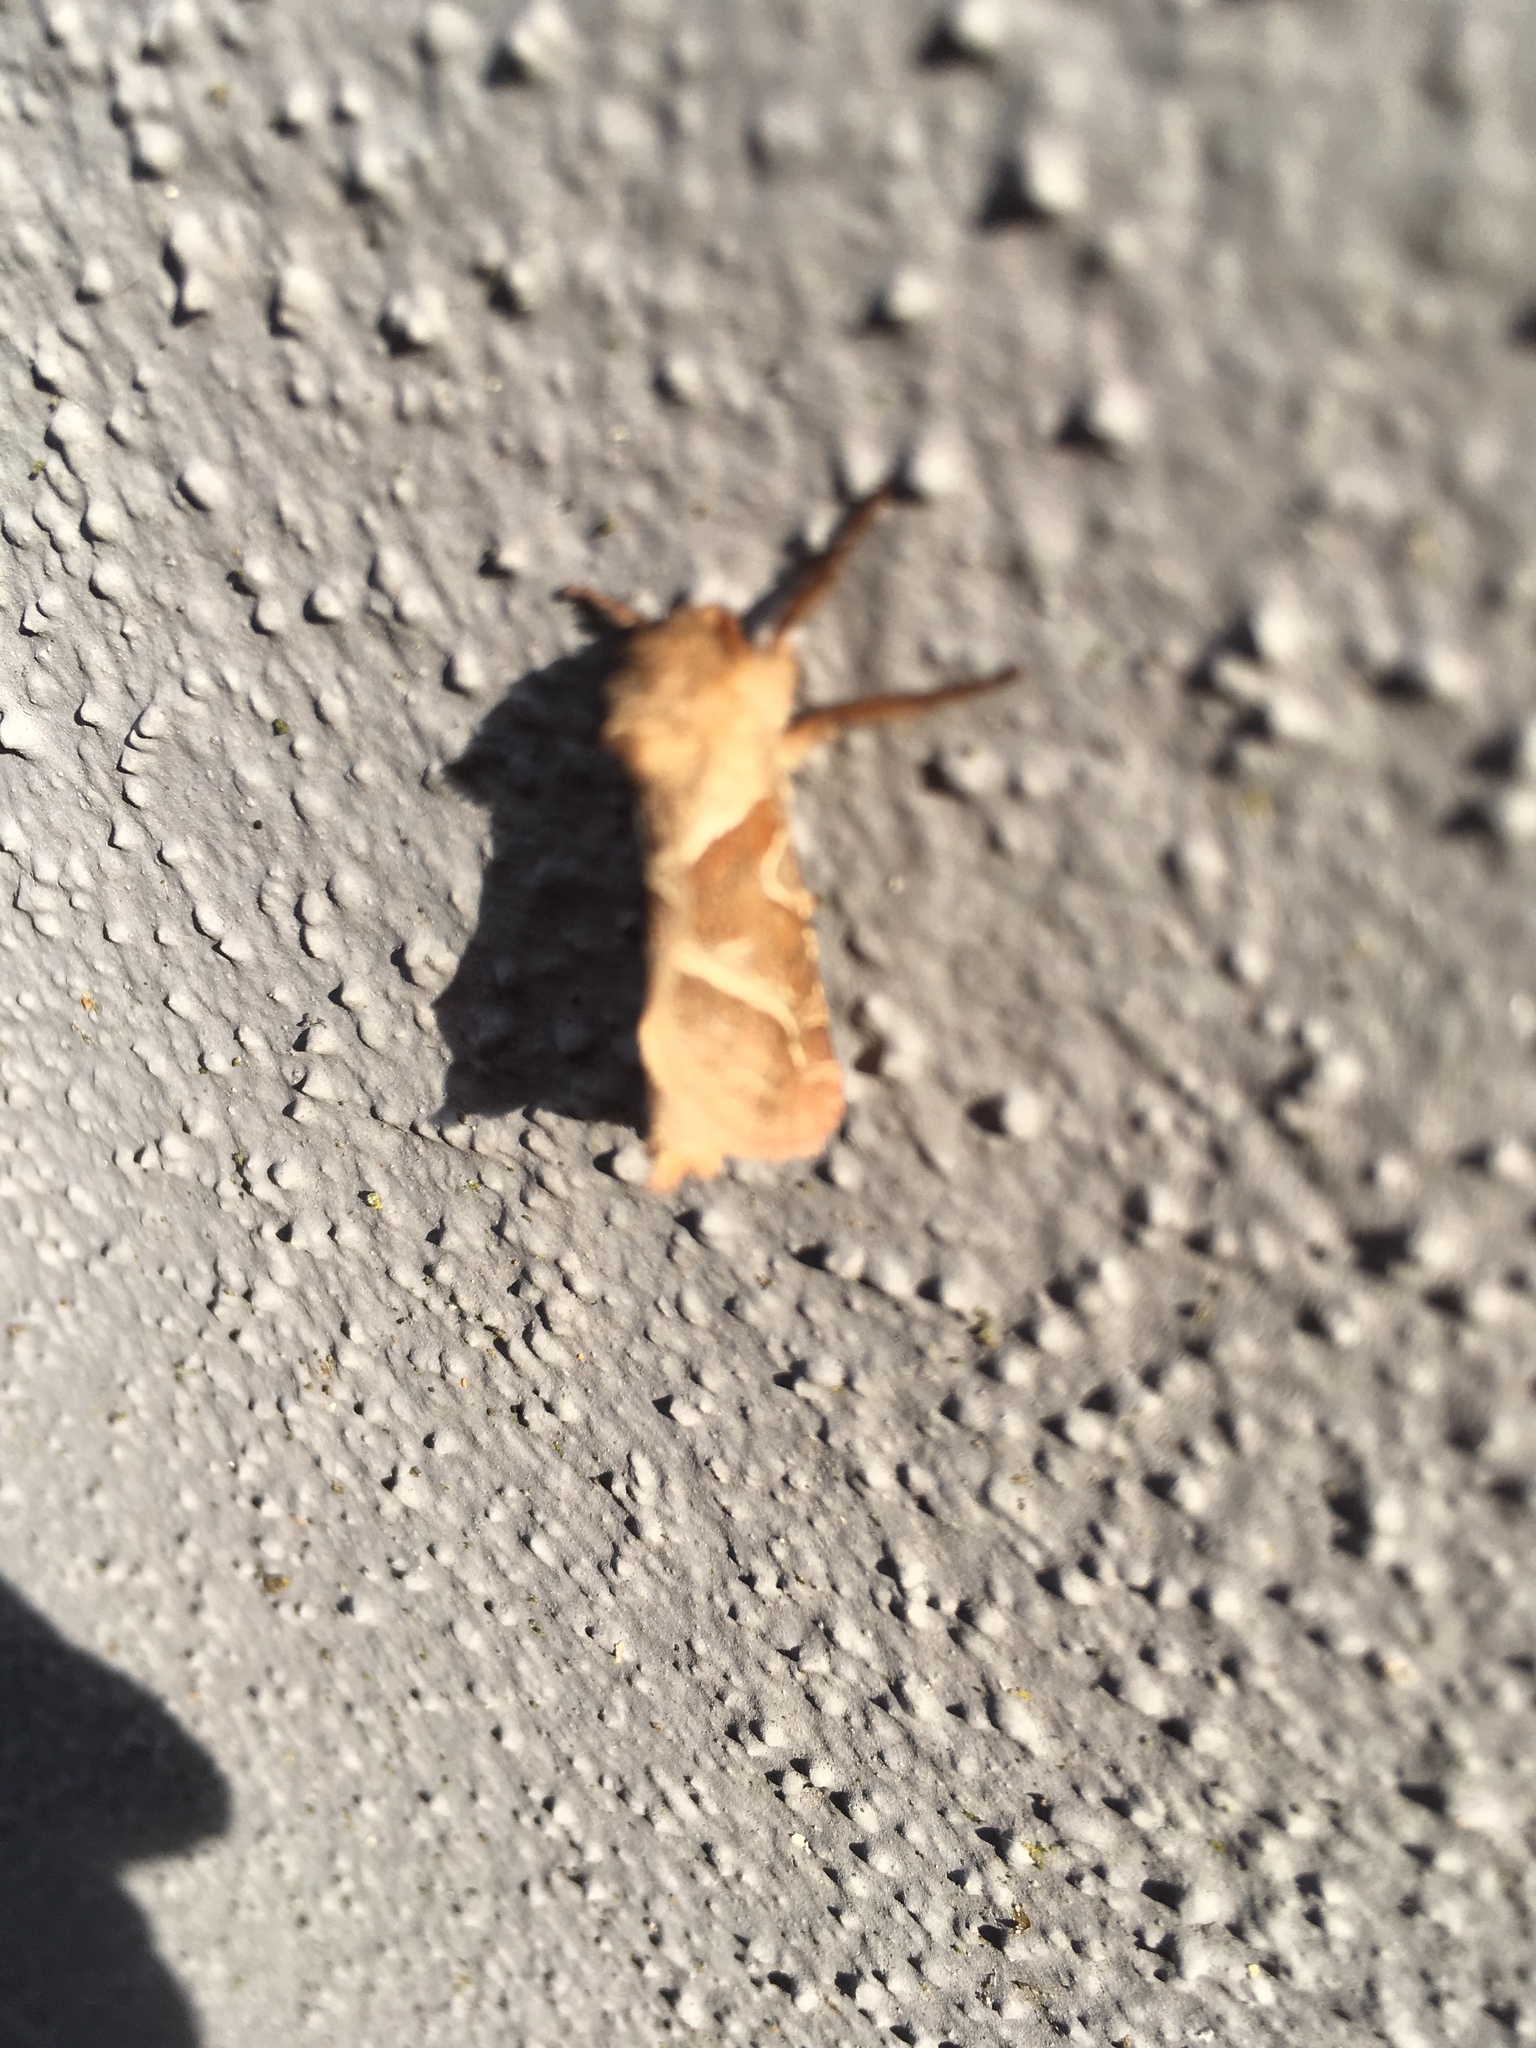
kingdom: Animalia
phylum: Arthropoda
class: Insecta
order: Lepidoptera
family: Hepialidae
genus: Triodia
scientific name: Triodia sylvina
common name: Orange swift
